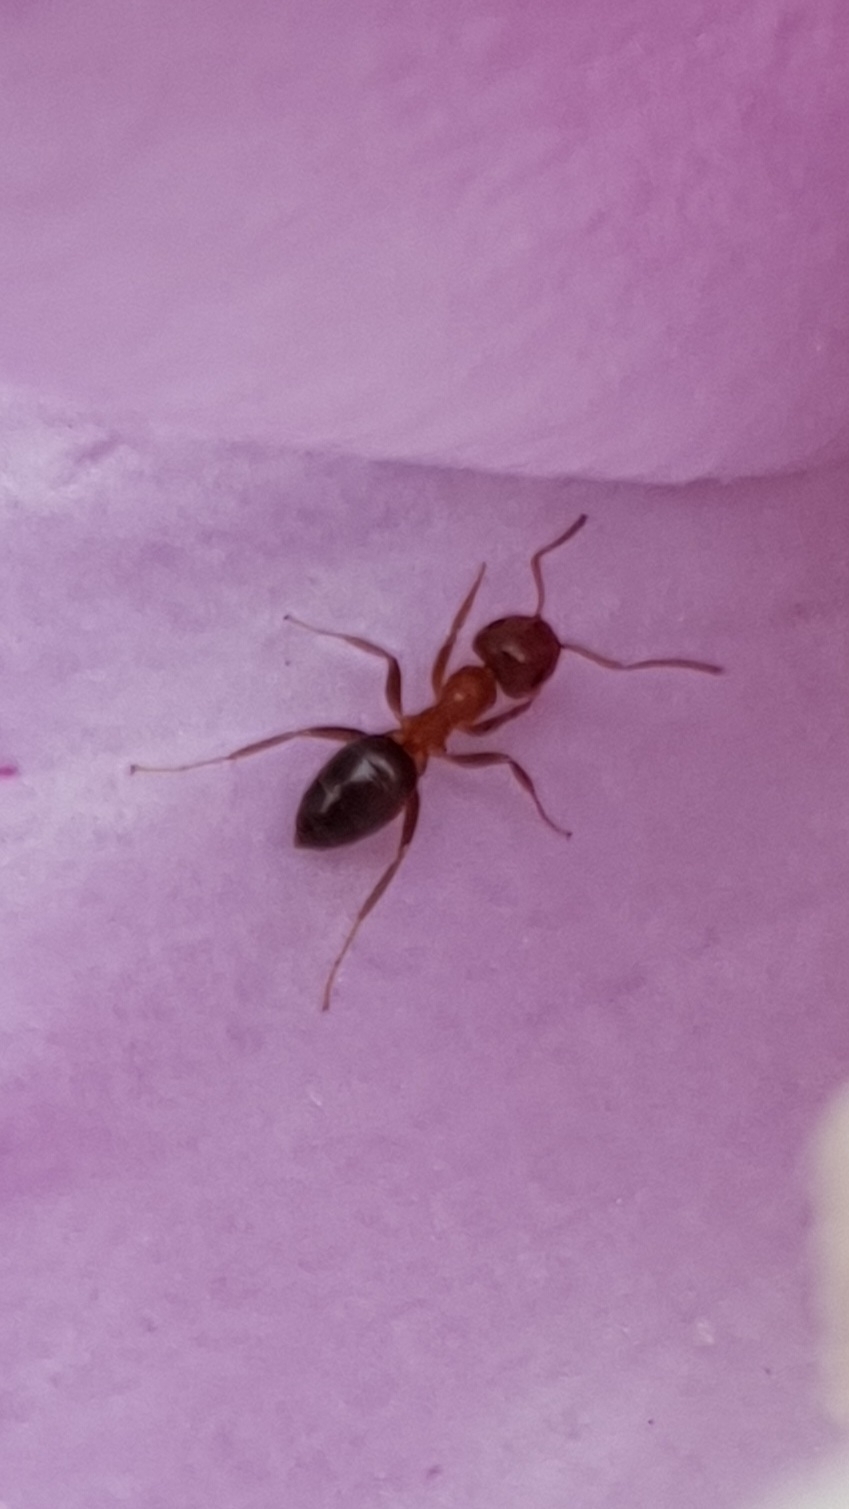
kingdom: Animalia
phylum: Arthropoda
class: Insecta
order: Hymenoptera
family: Formicidae
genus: Lasius
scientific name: Lasius brunneus
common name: Brown ant
